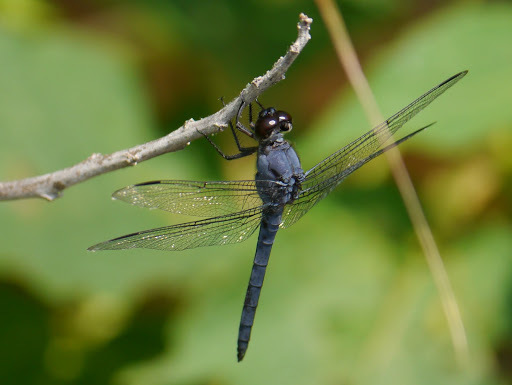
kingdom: Animalia
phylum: Arthropoda
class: Insecta
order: Odonata
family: Libellulidae
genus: Libellula
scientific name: Libellula incesta
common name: Slaty skimmer
